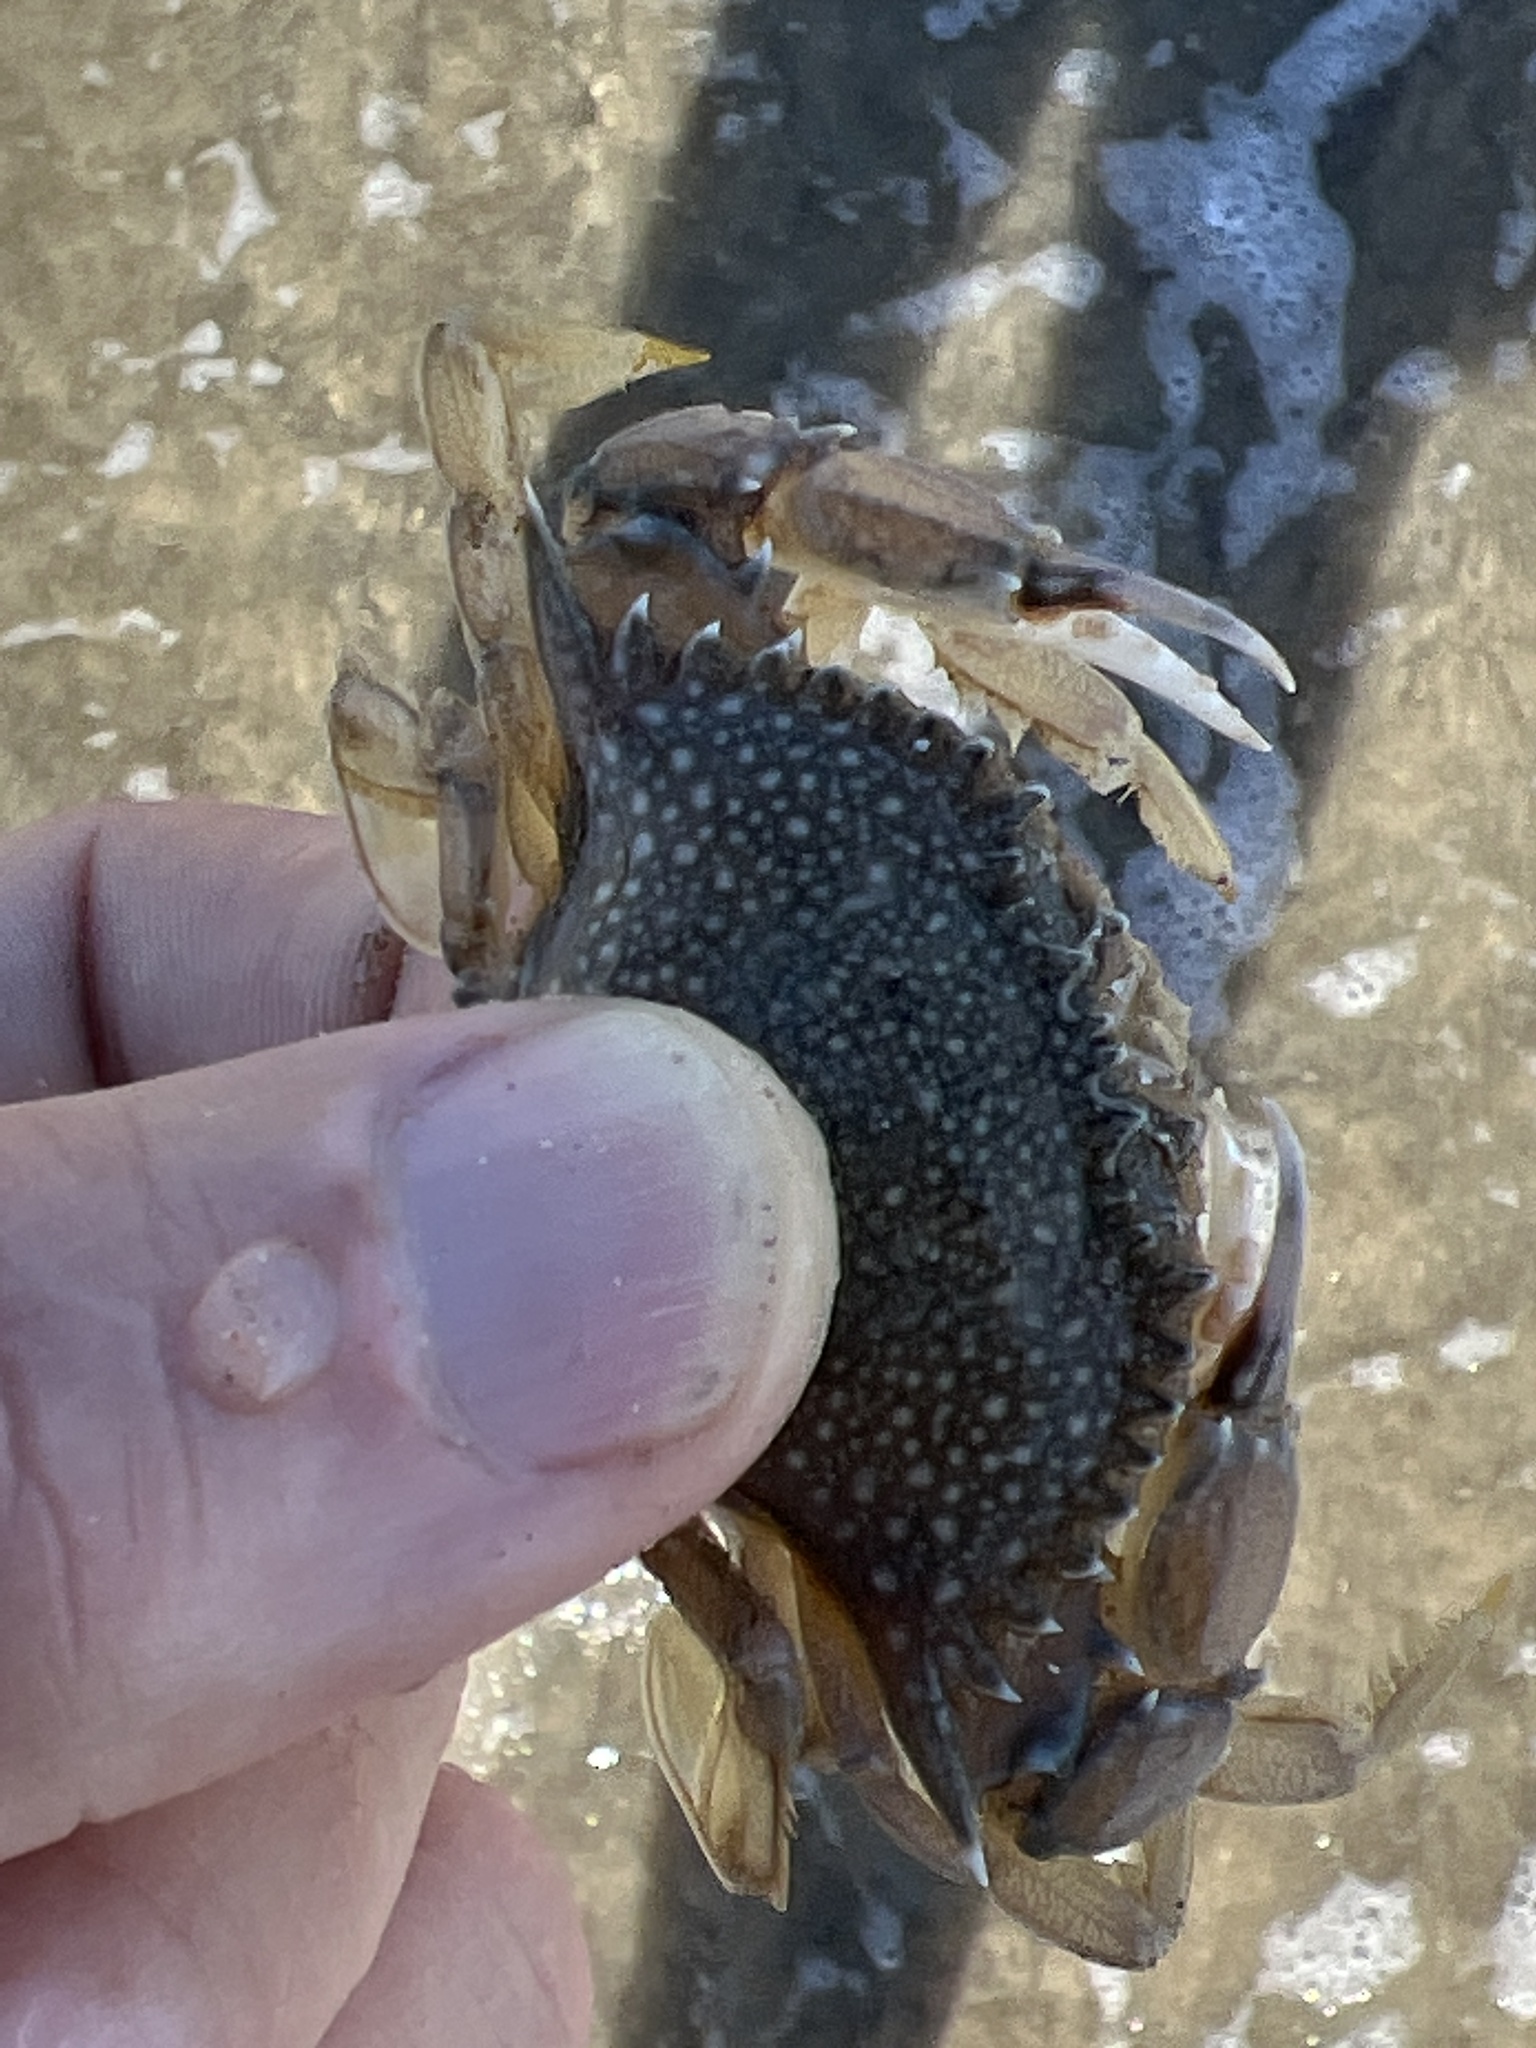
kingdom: Animalia
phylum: Arthropoda
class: Malacostraca
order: Decapoda
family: Portunidae
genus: Arenaeus
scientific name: Arenaeus mexicanus
